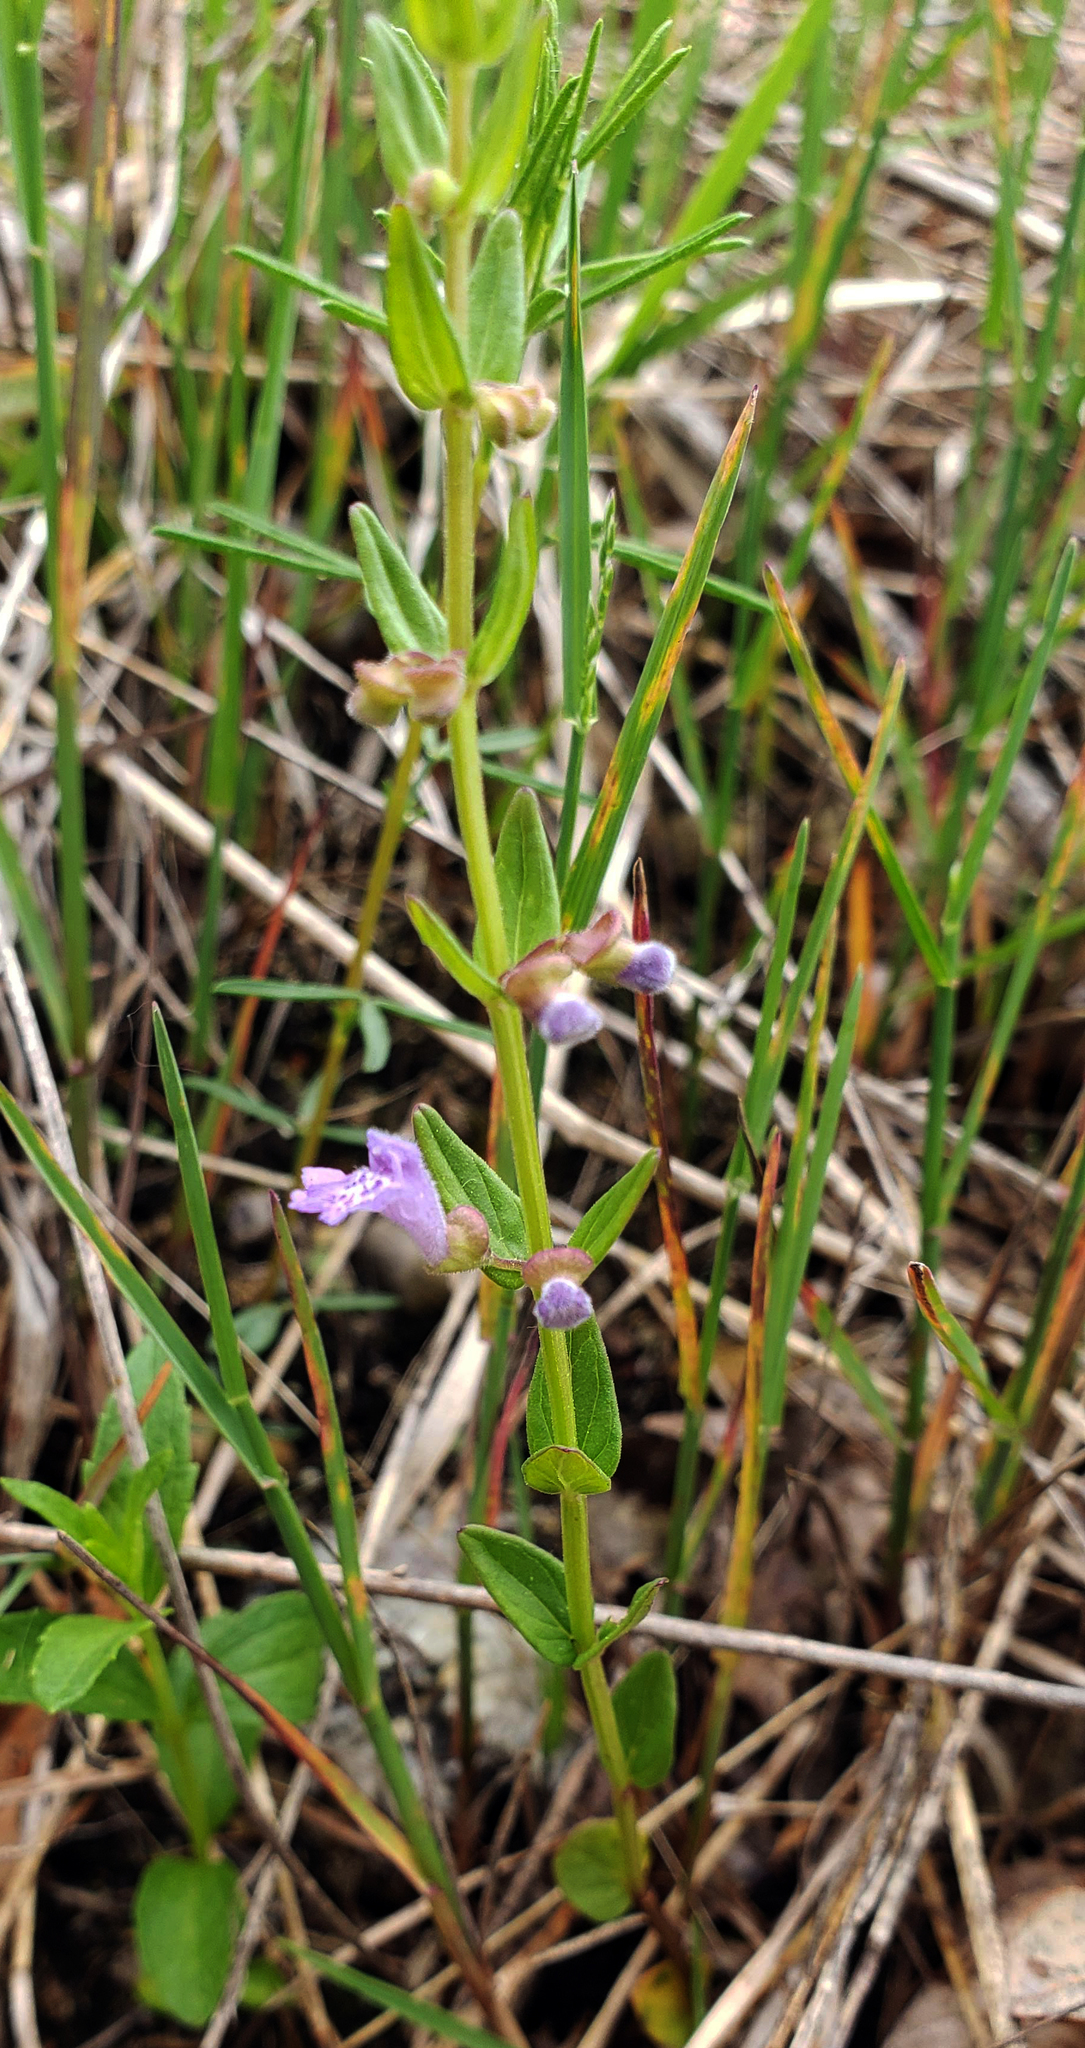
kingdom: Plantae
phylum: Tracheophyta
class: Magnoliopsida
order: Lamiales
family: Lamiaceae
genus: Scutellaria
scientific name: Scutellaria parvula
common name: Little scullcap
